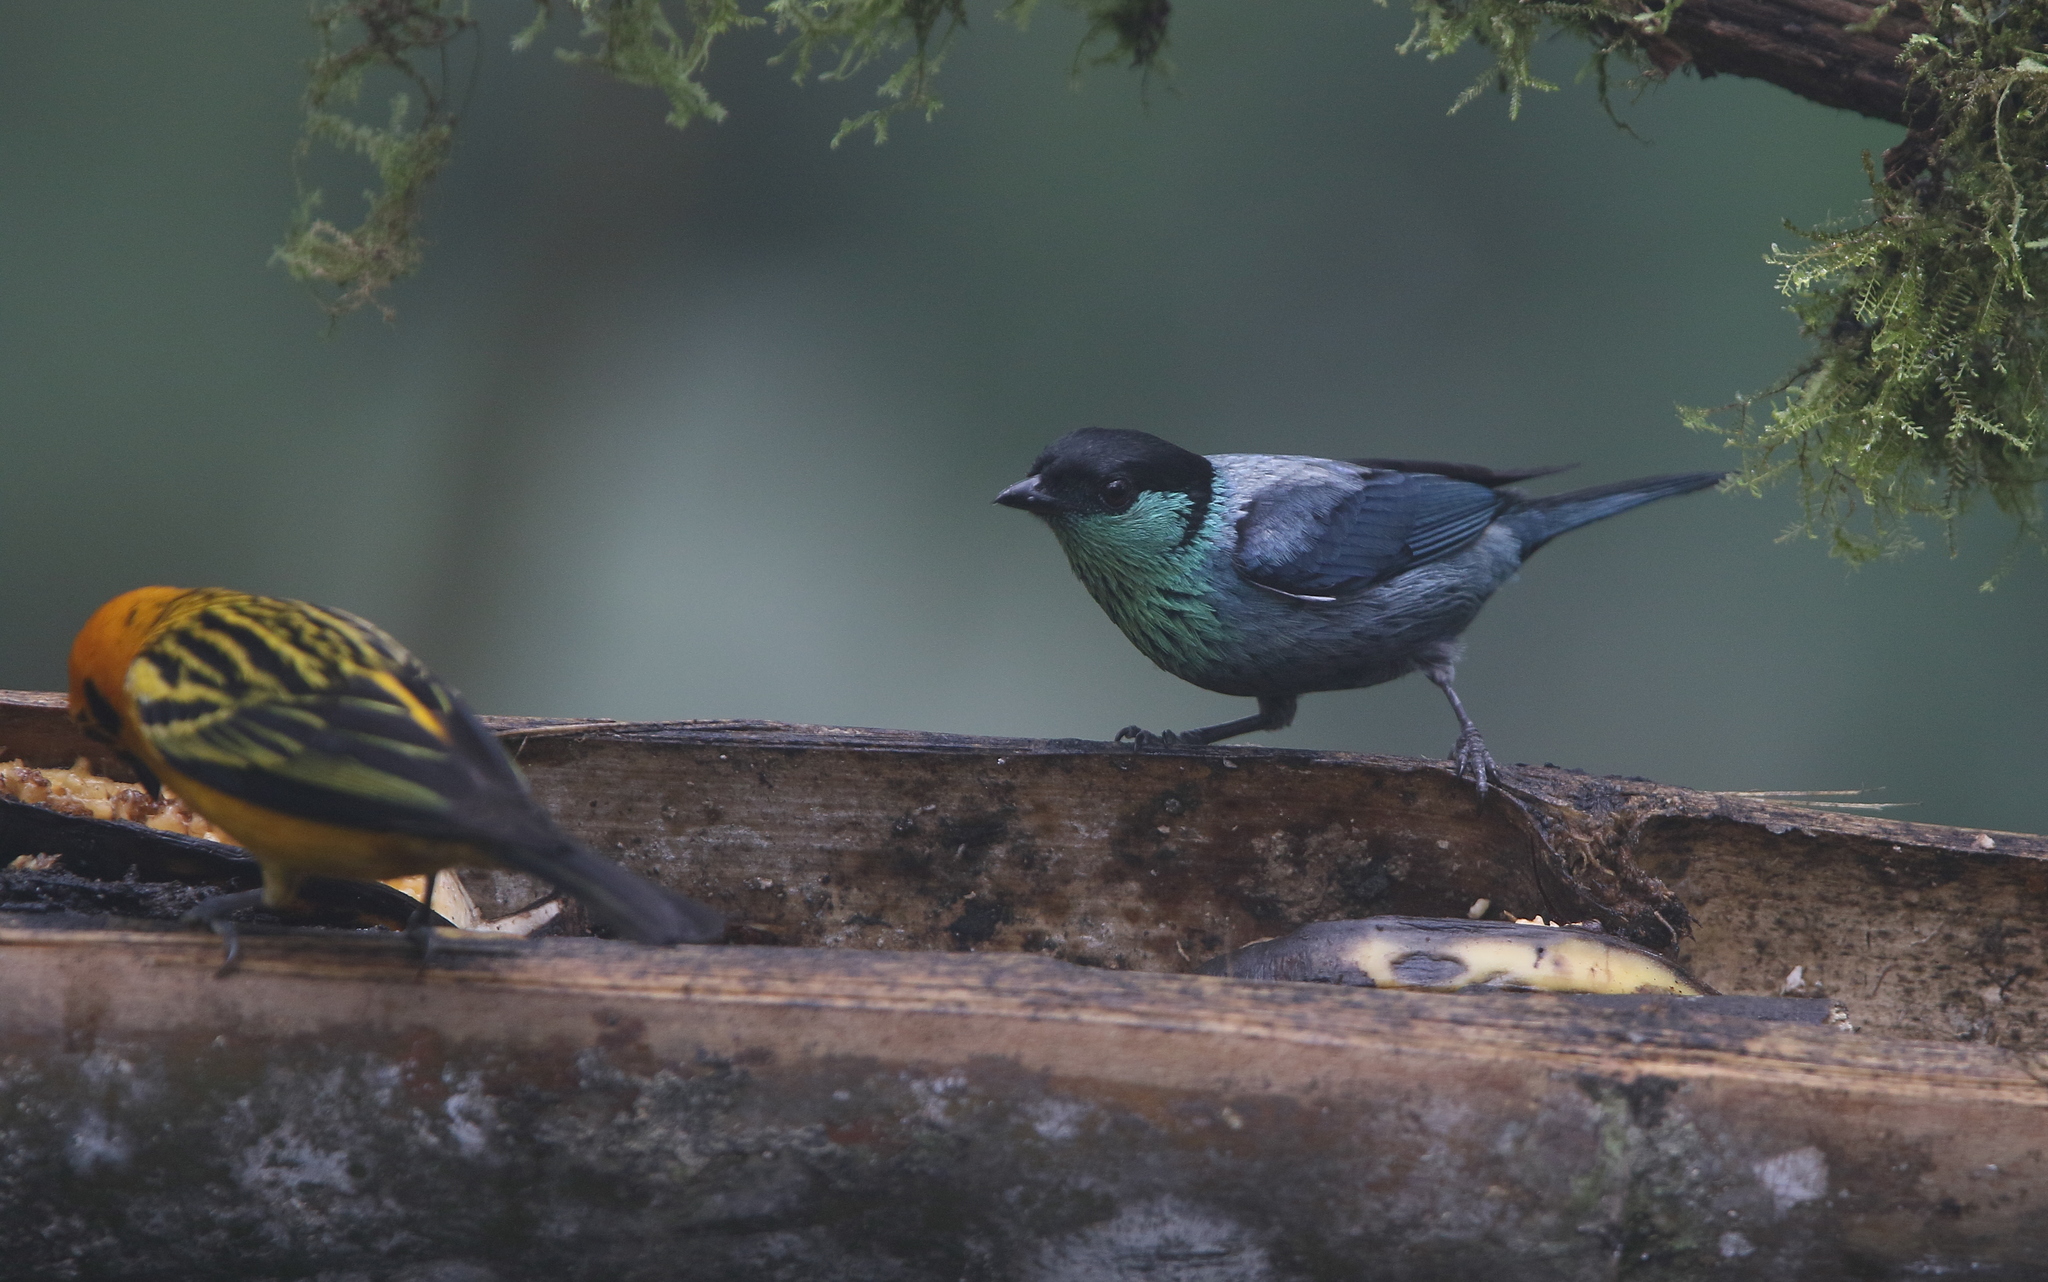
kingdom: Animalia
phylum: Chordata
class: Aves
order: Passeriformes
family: Thraupidae
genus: Stilpnia
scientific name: Stilpnia heinei
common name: Black-capped tanager
